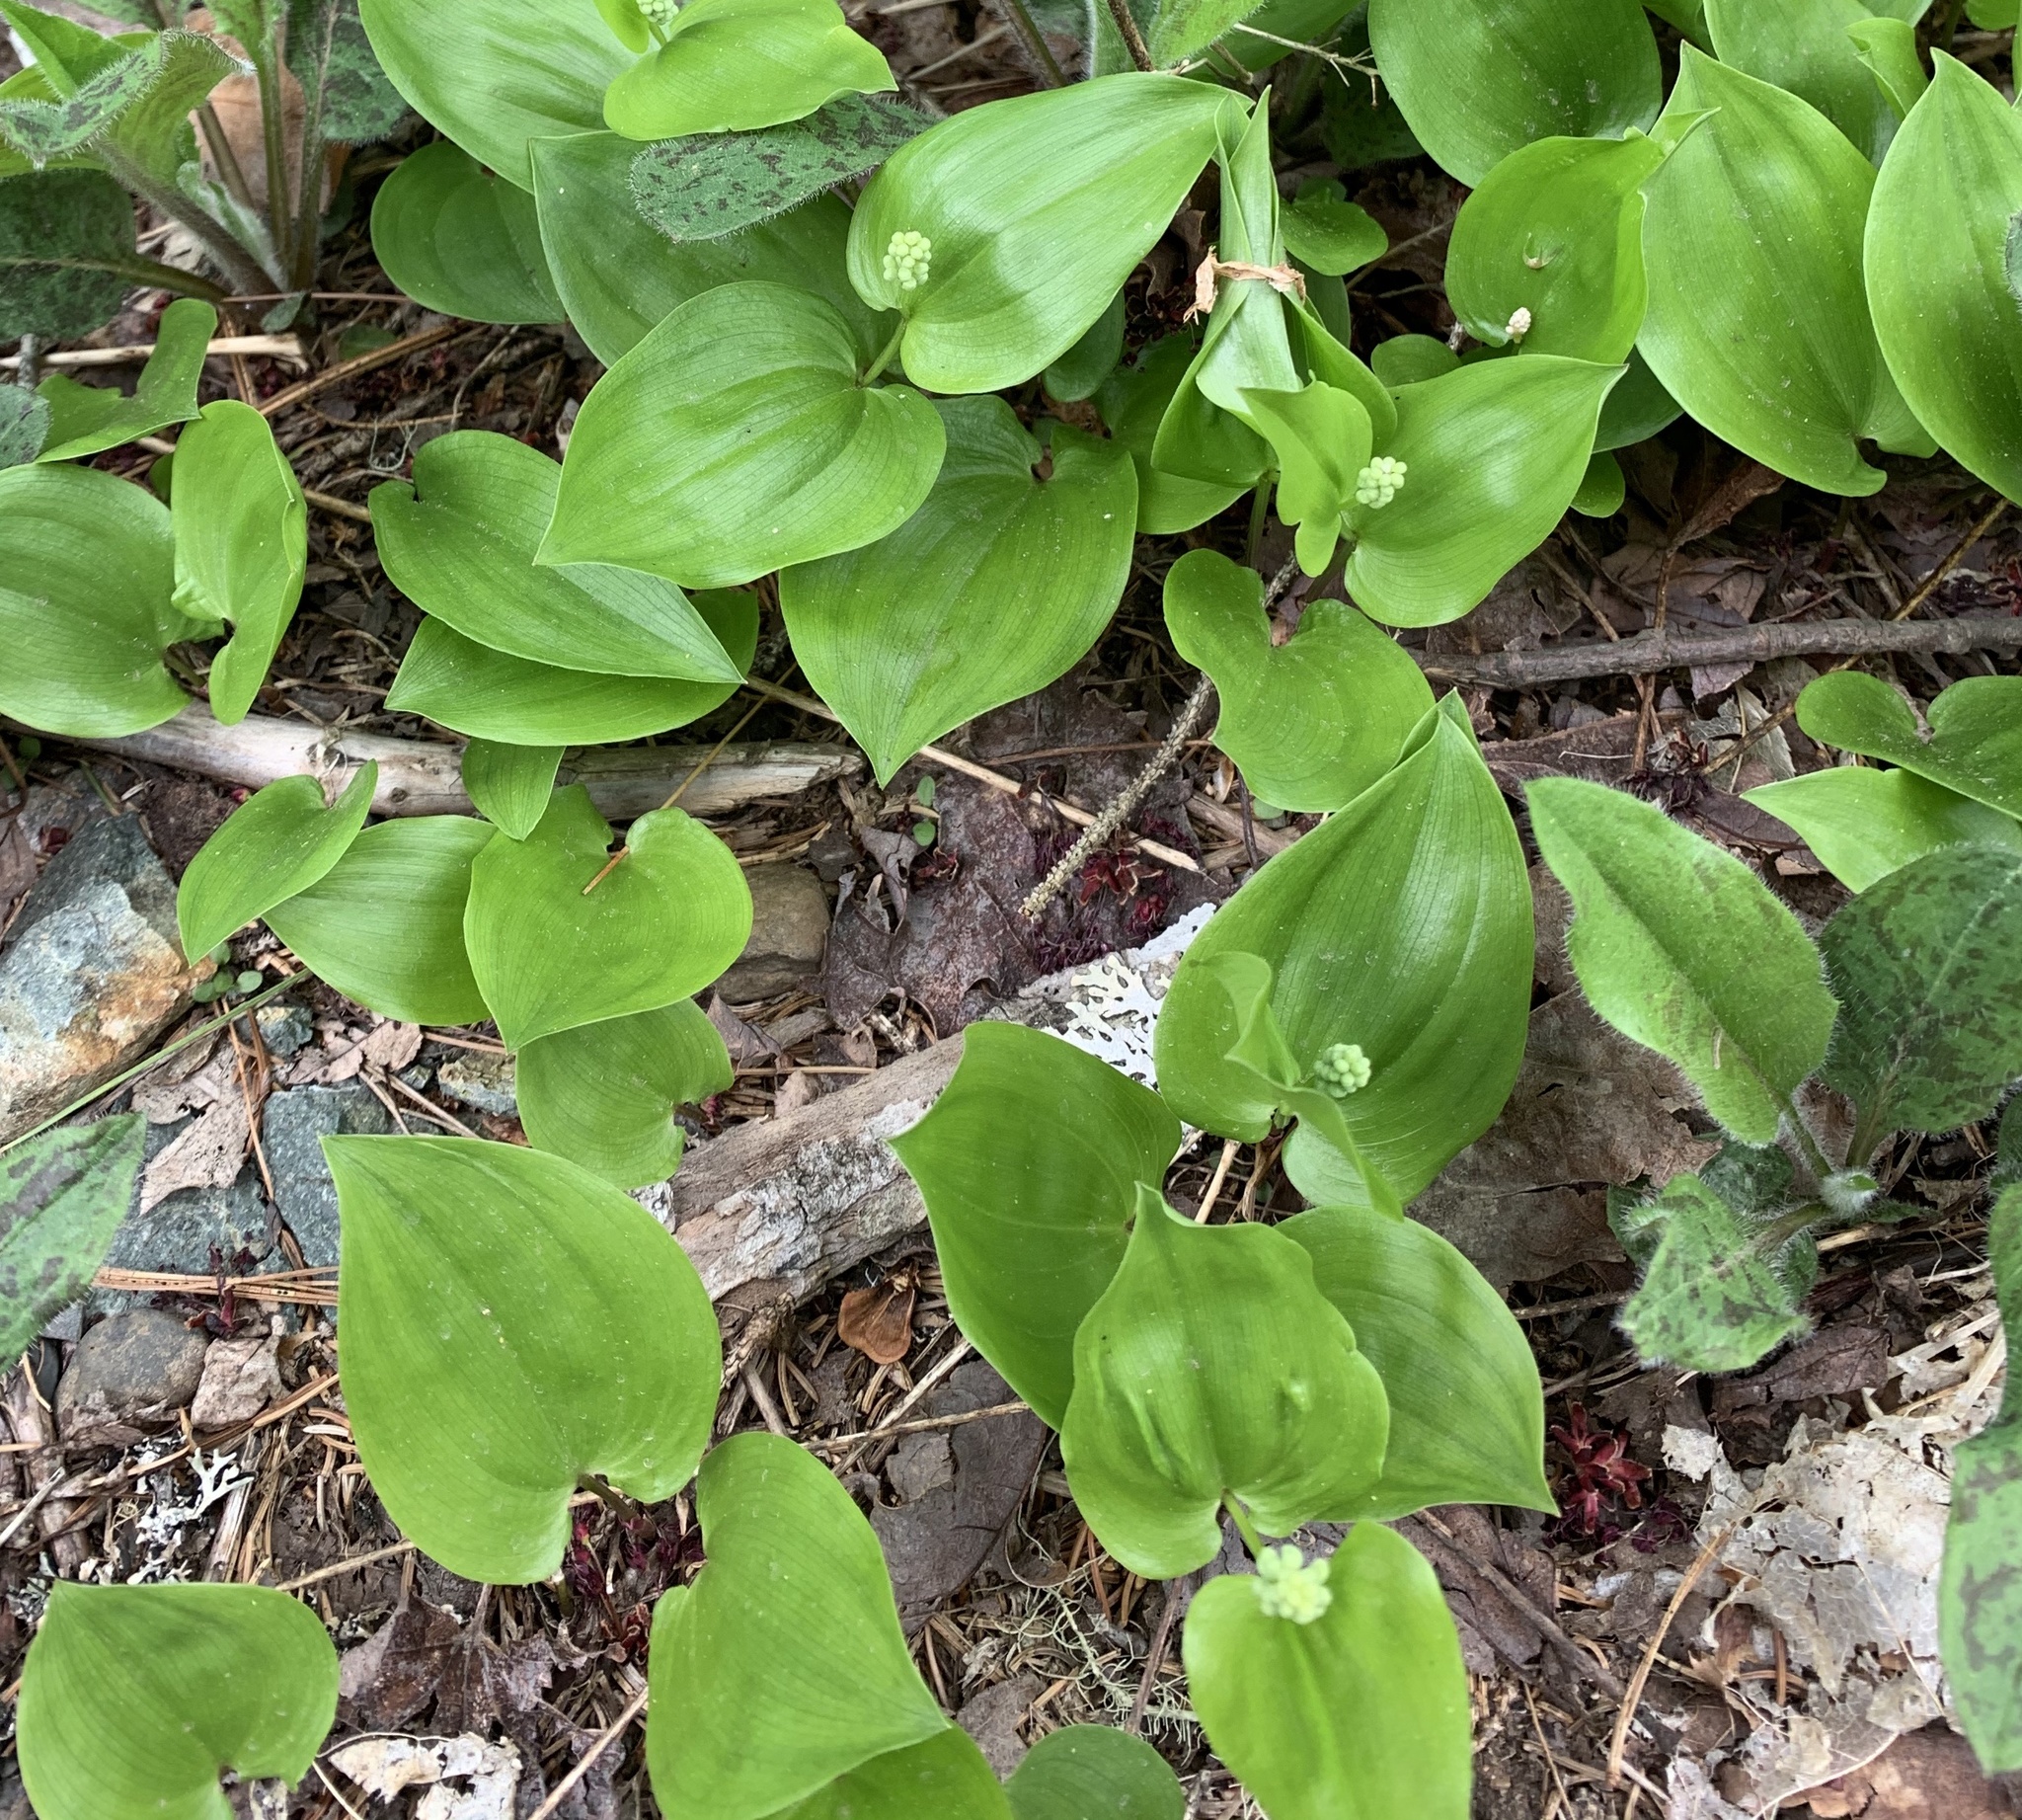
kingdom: Plantae
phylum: Tracheophyta
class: Liliopsida
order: Asparagales
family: Asparagaceae
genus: Maianthemum
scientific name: Maianthemum canadense
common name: False lily-of-the-valley
